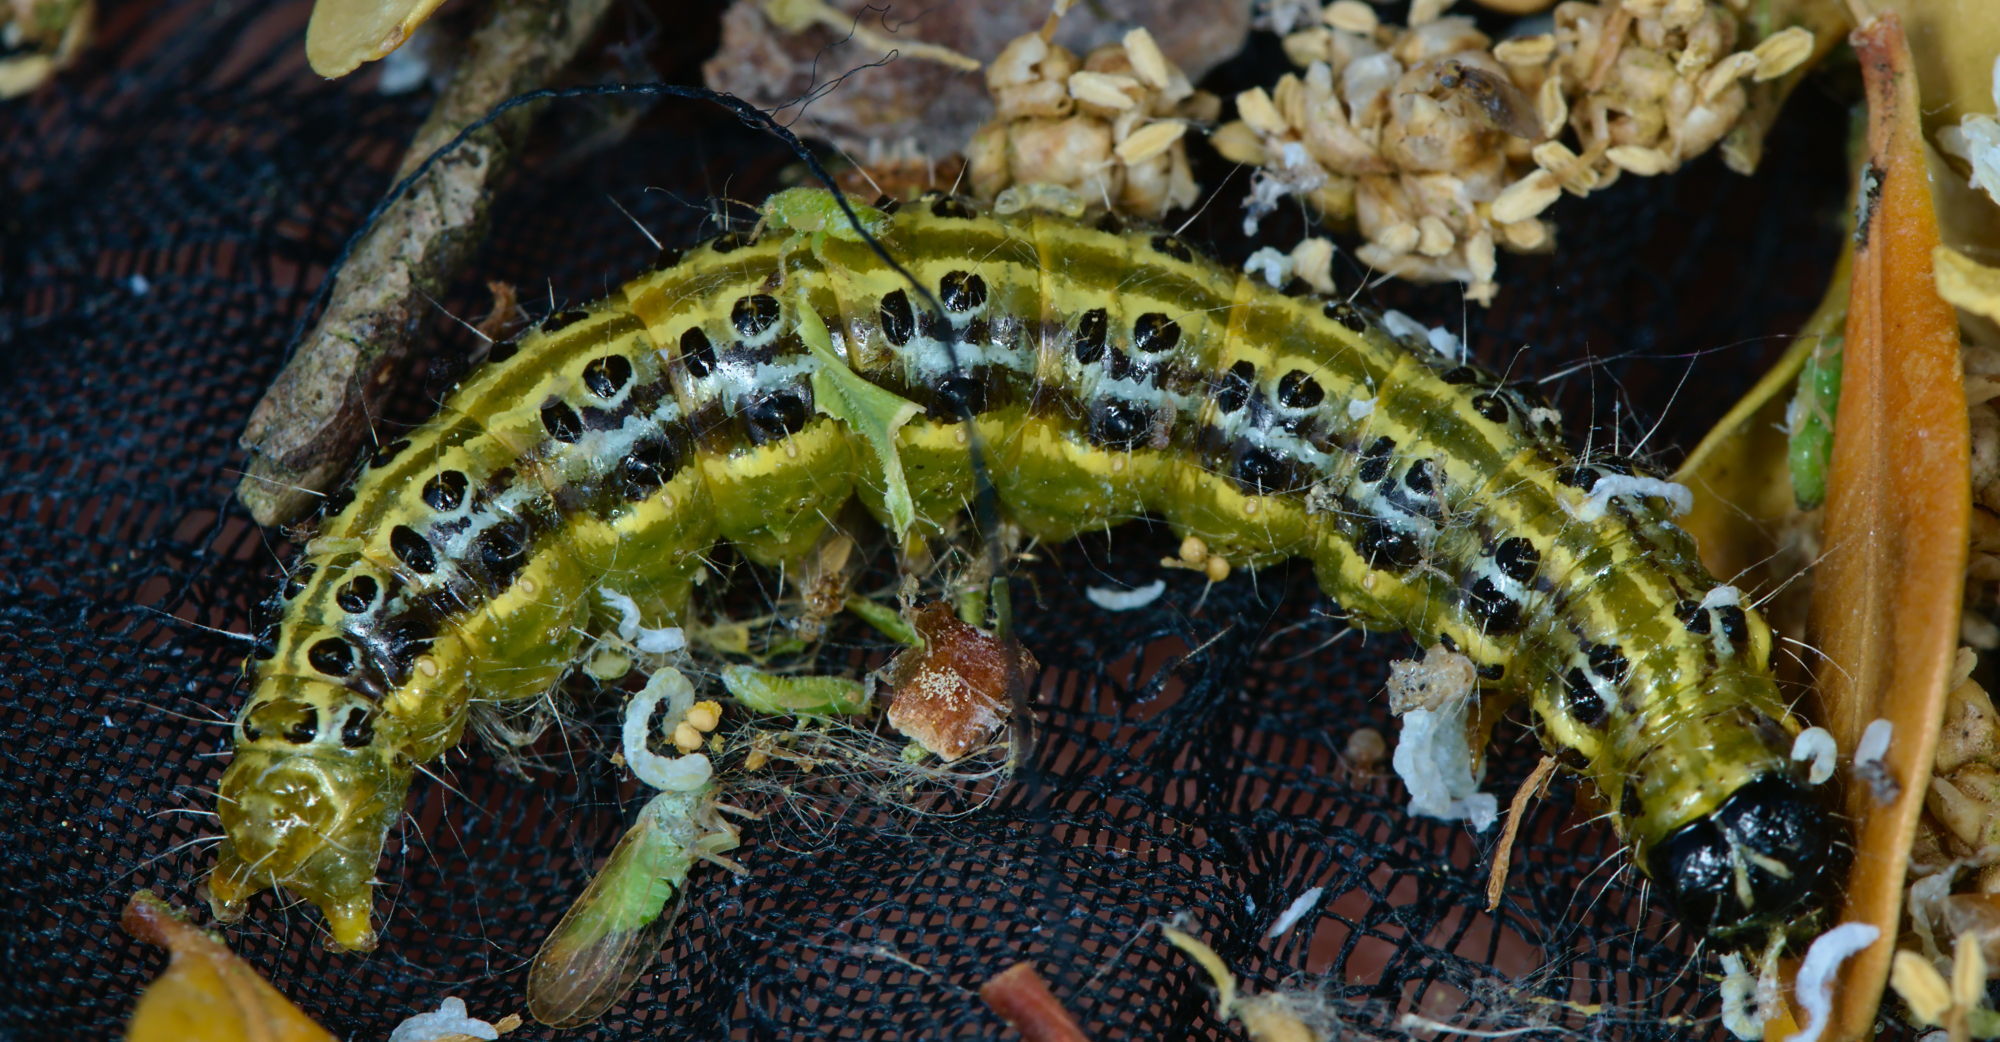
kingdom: Animalia
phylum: Arthropoda
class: Insecta
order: Lepidoptera
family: Crambidae
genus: Cydalima
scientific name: Cydalima perspectalis
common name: Box tree moth
